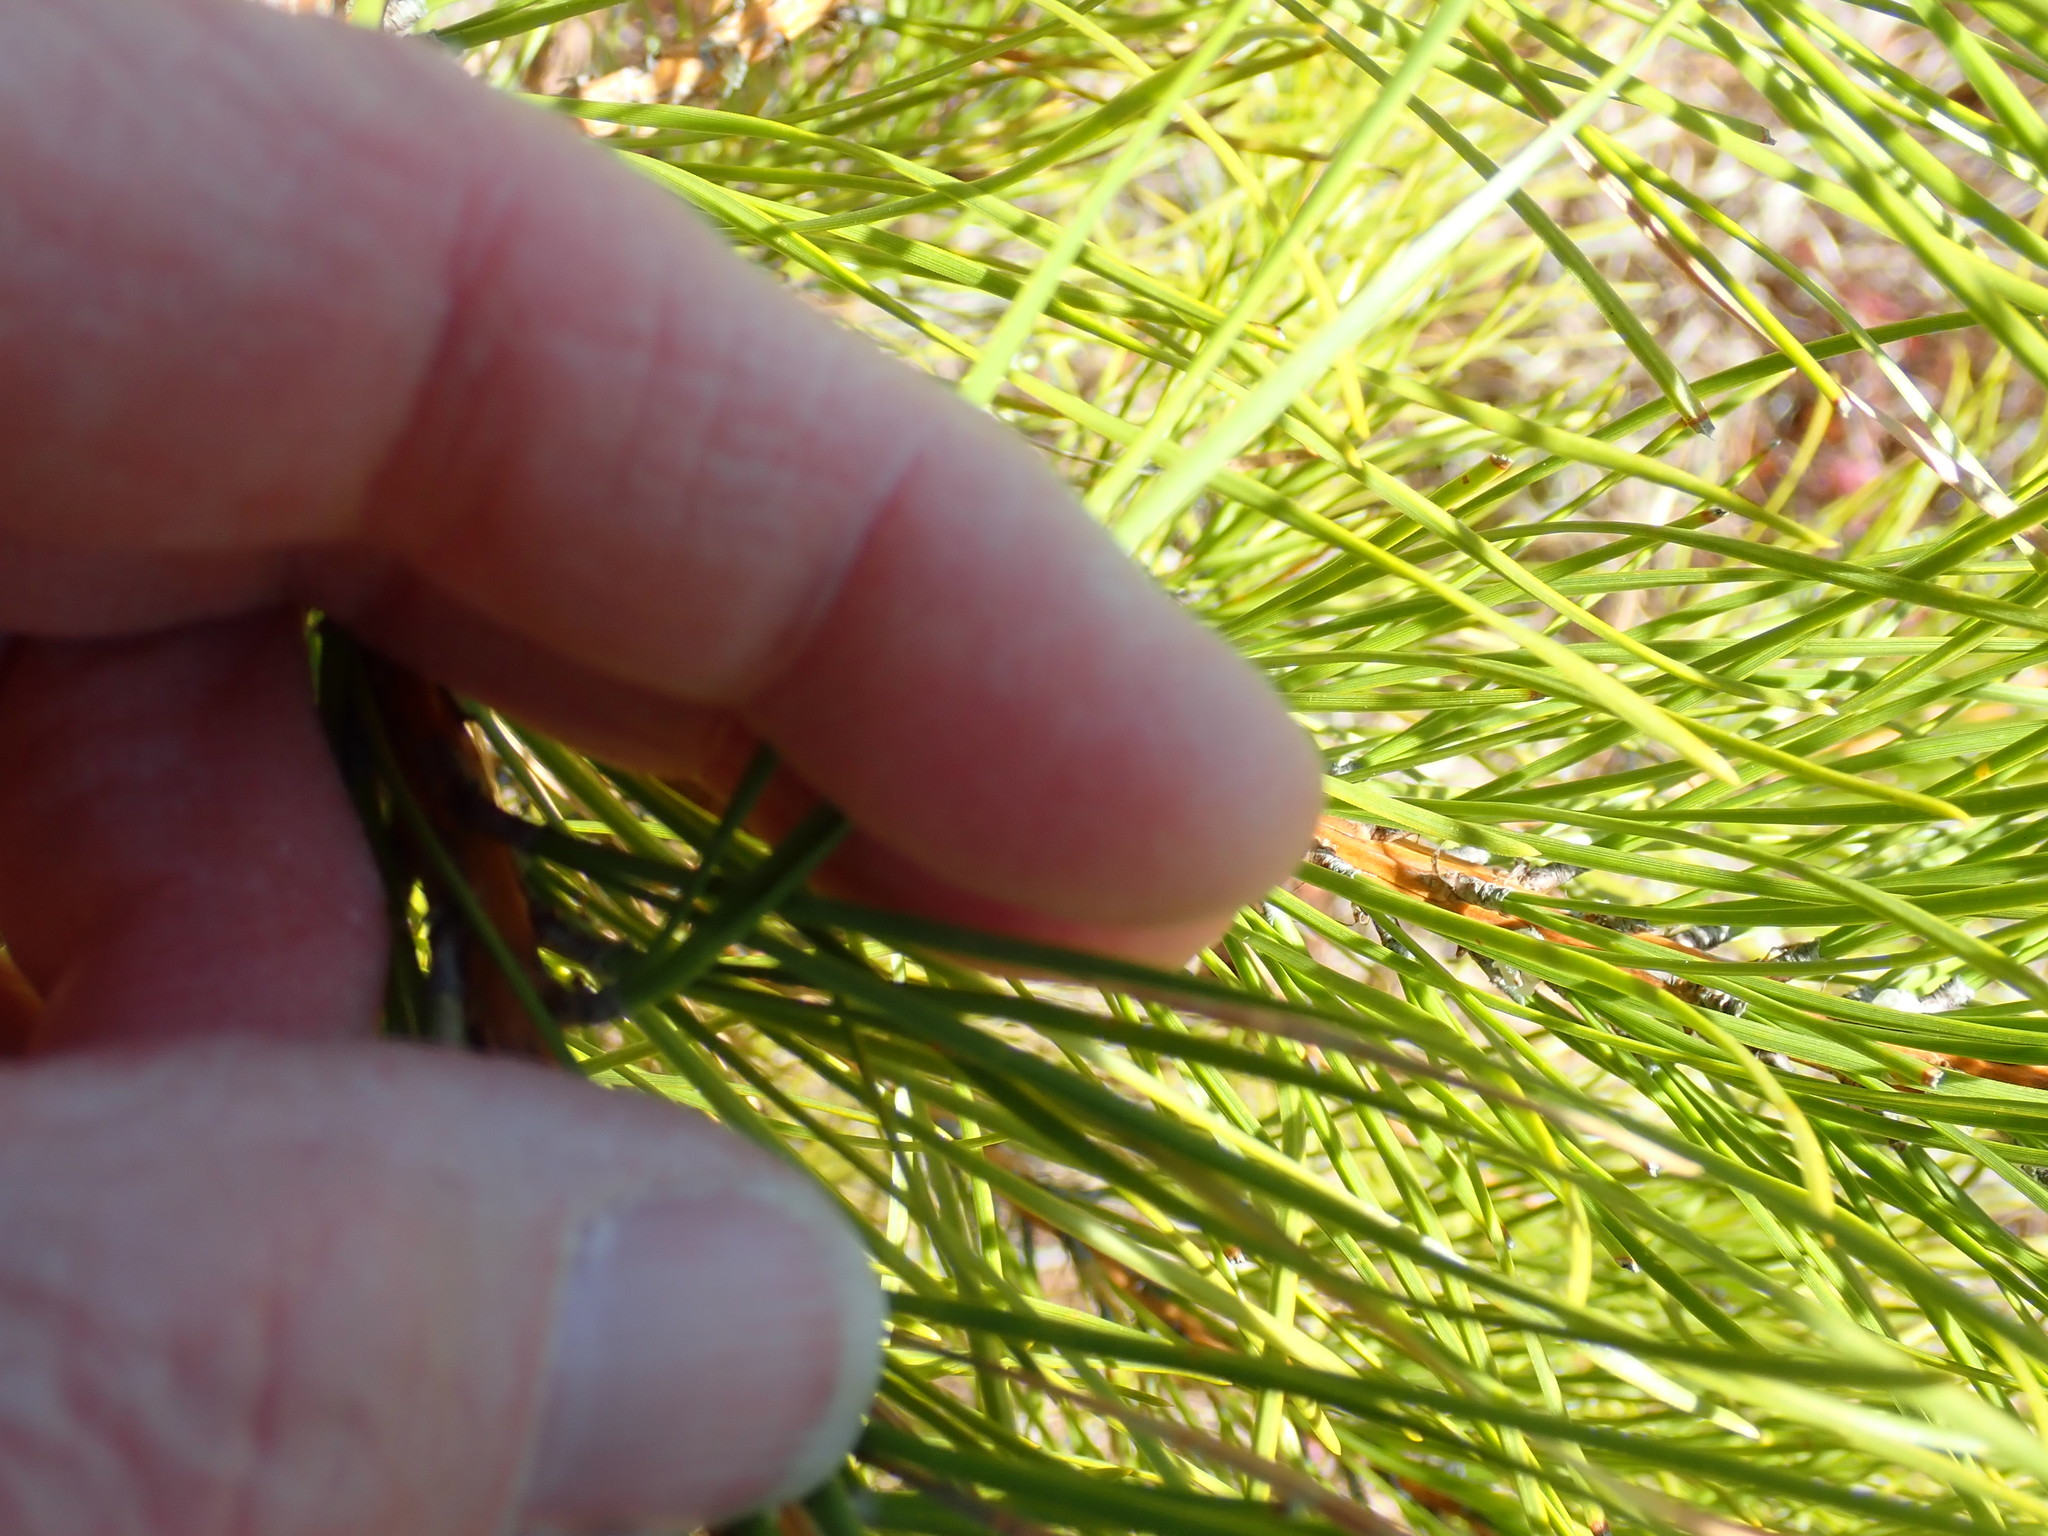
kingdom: Plantae
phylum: Tracheophyta
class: Pinopsida
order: Pinales
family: Pinaceae
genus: Pinus
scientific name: Pinus rigida
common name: Pitch pine
